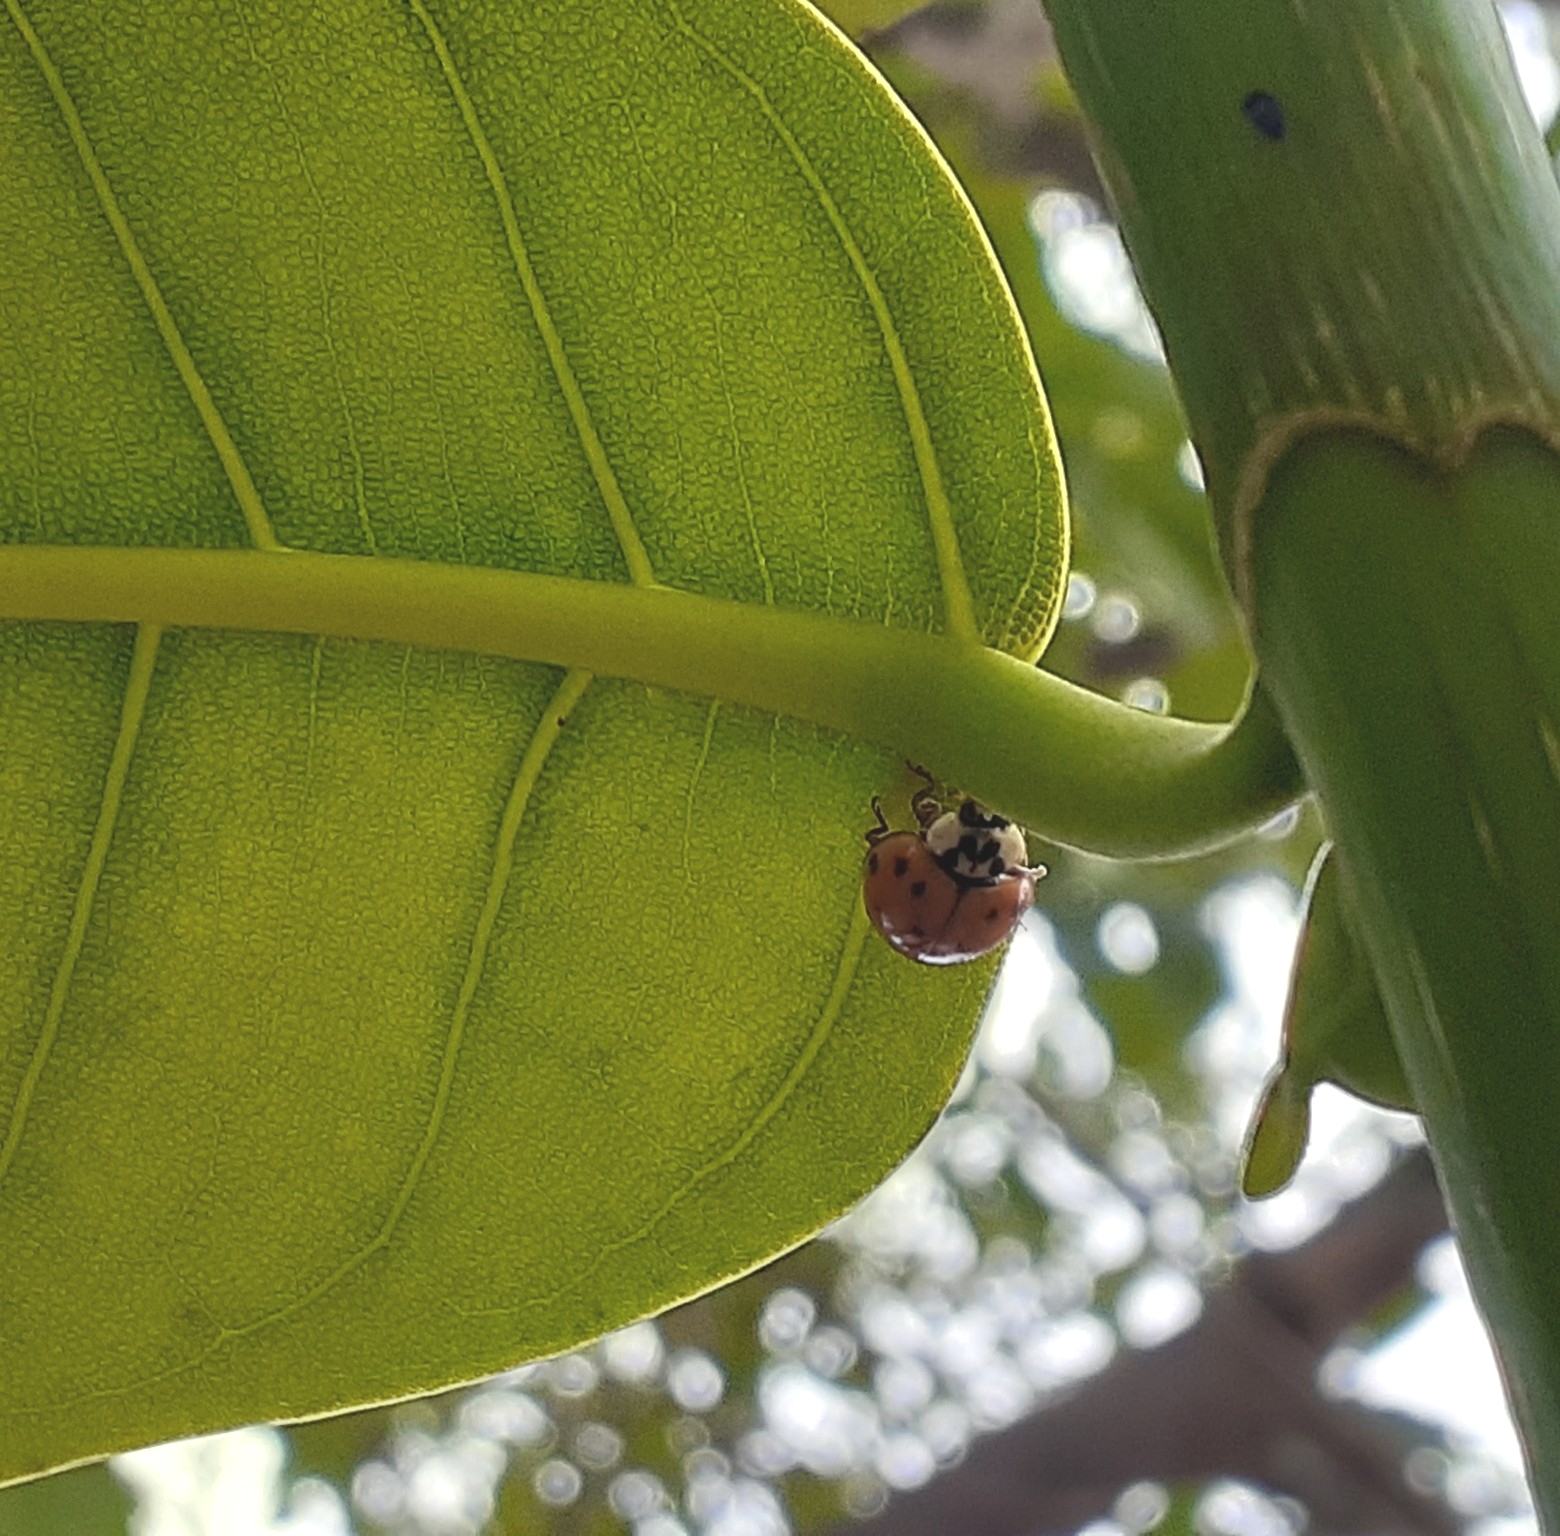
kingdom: Animalia
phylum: Arthropoda
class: Insecta
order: Coleoptera
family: Coccinellidae
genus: Harmonia
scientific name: Harmonia axyridis
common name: Harlequin ladybird
